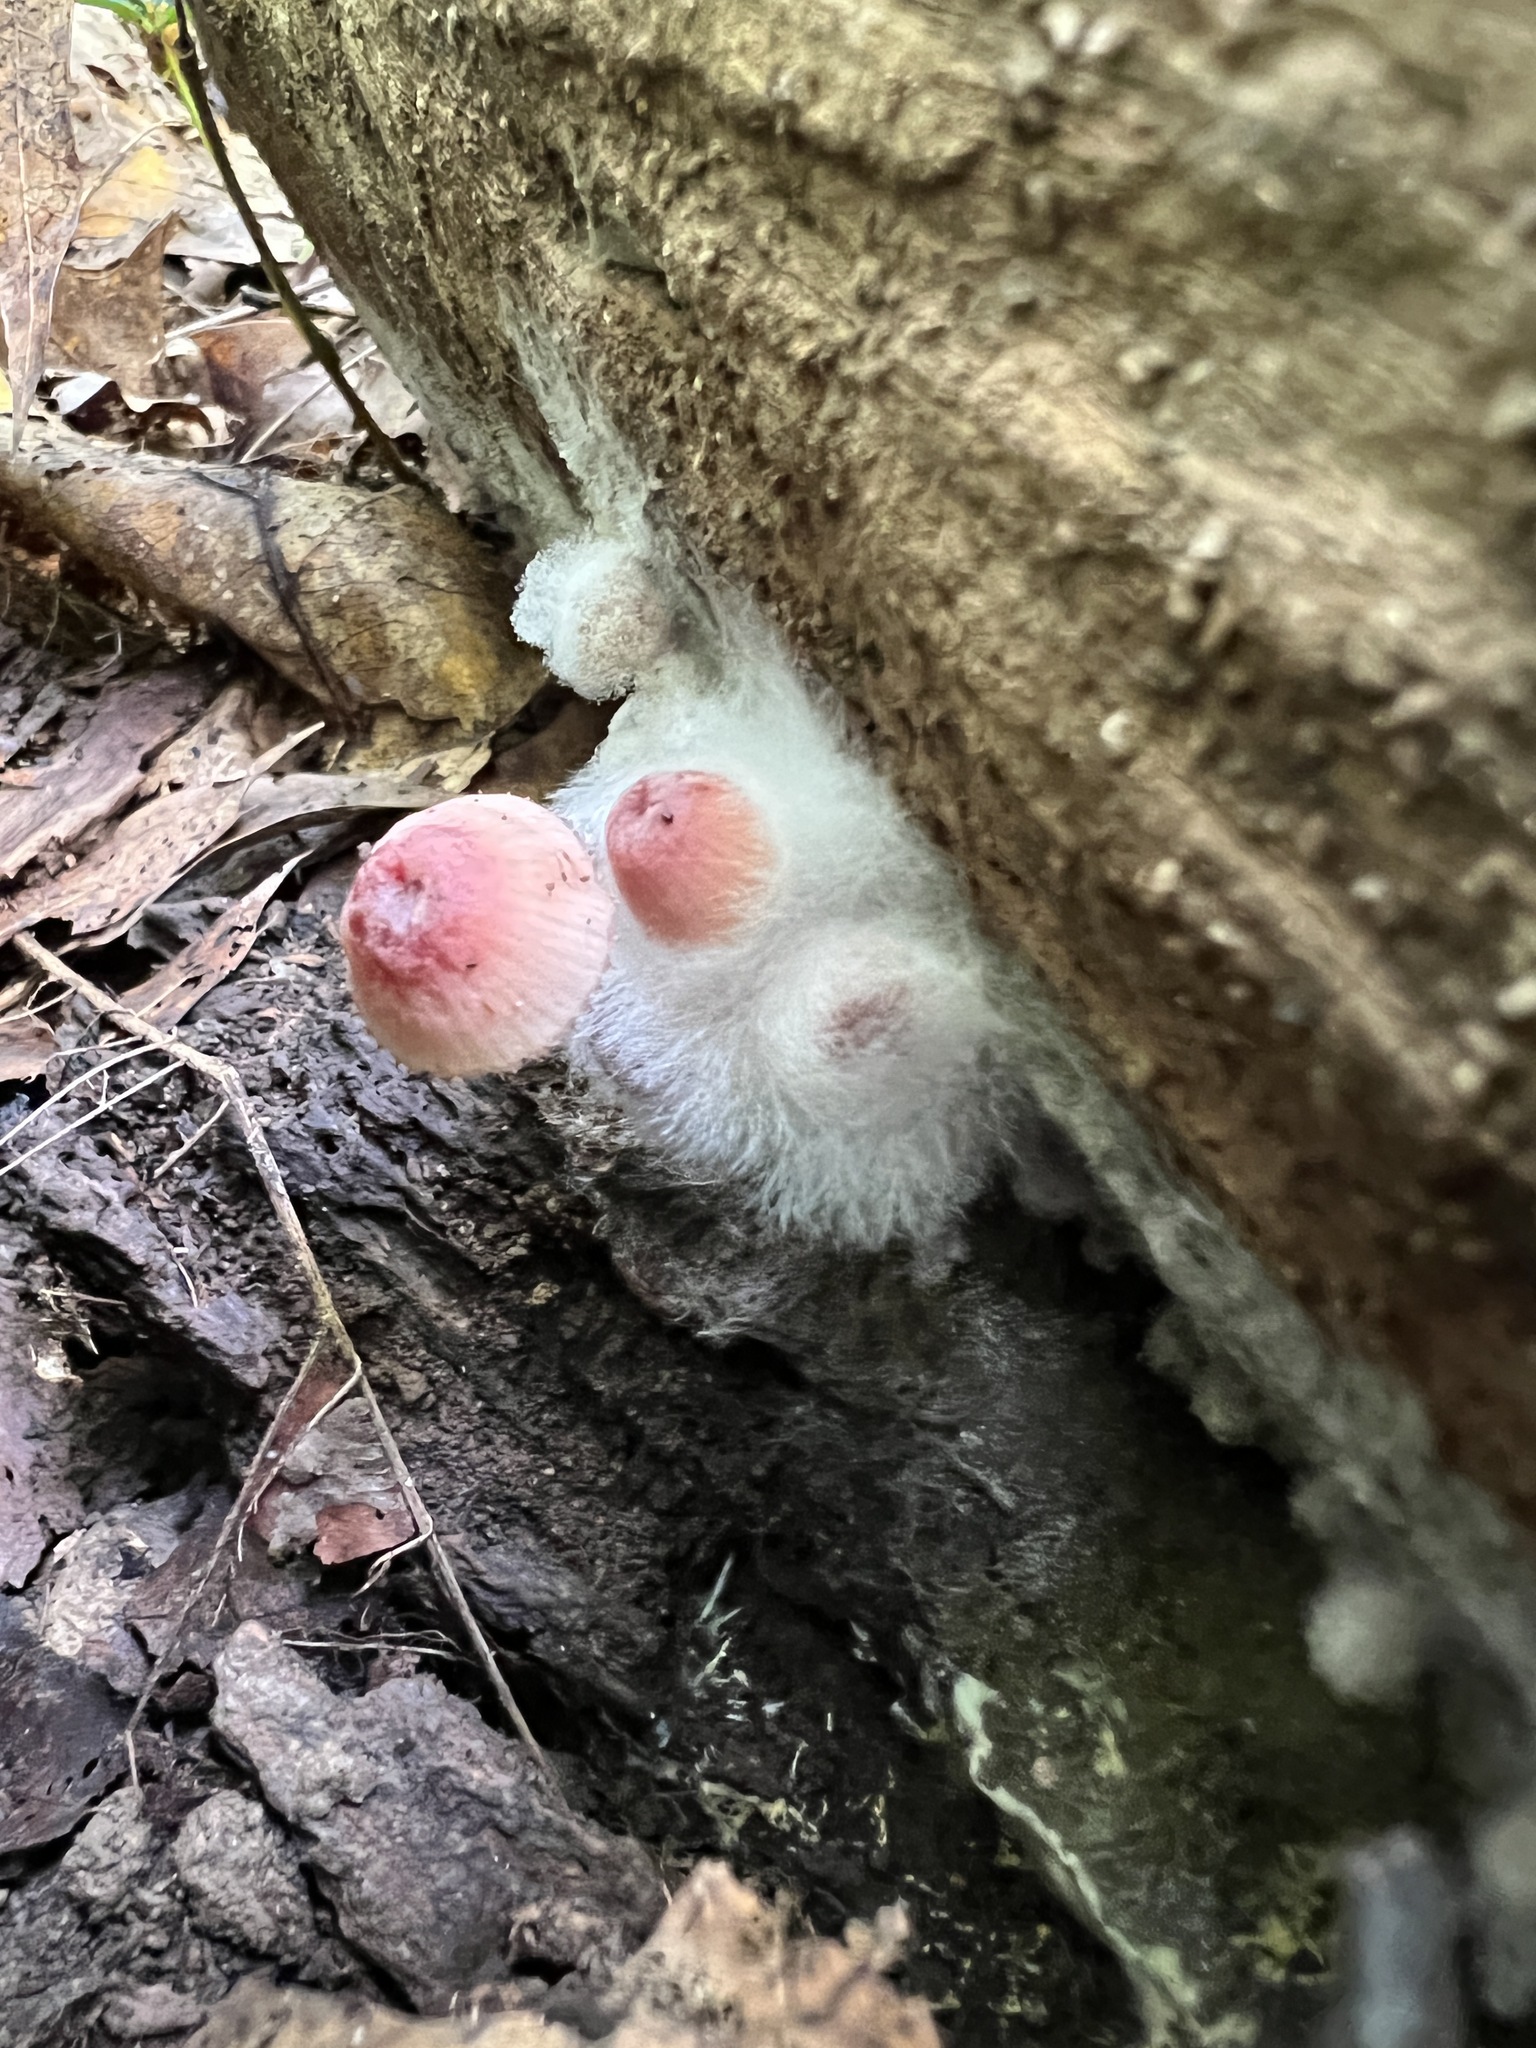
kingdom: Fungi
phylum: Mucoromycota
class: Mucoromycetes
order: Mucorales
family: Phycomycetaceae
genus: Spinellus
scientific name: Spinellus fusiger
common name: Bonnet mould
